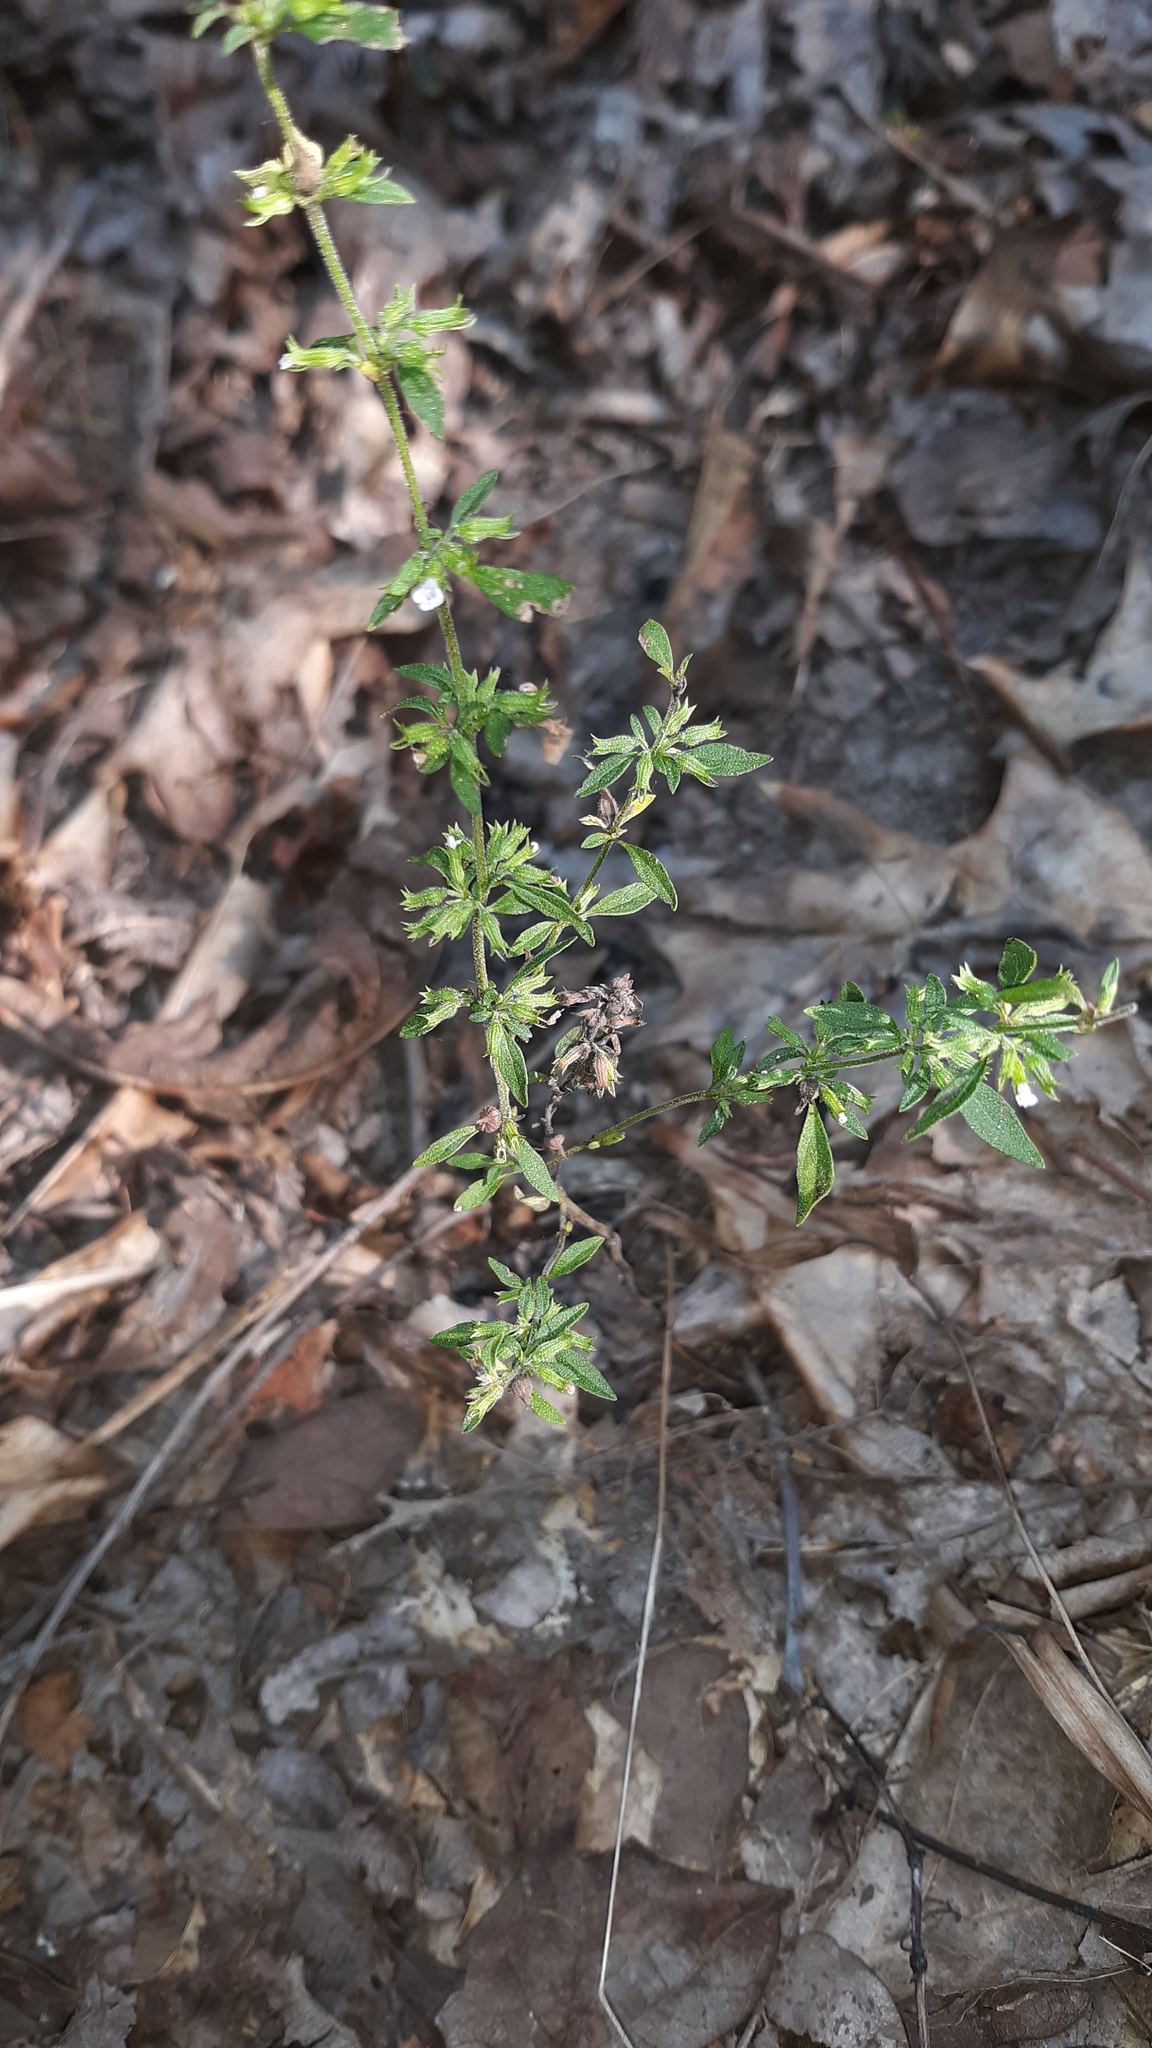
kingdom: Plantae
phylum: Tracheophyta
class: Magnoliopsida
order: Lamiales
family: Lamiaceae
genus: Hedeoma
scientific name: Hedeoma pulegioides
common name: American false pennyroyal
